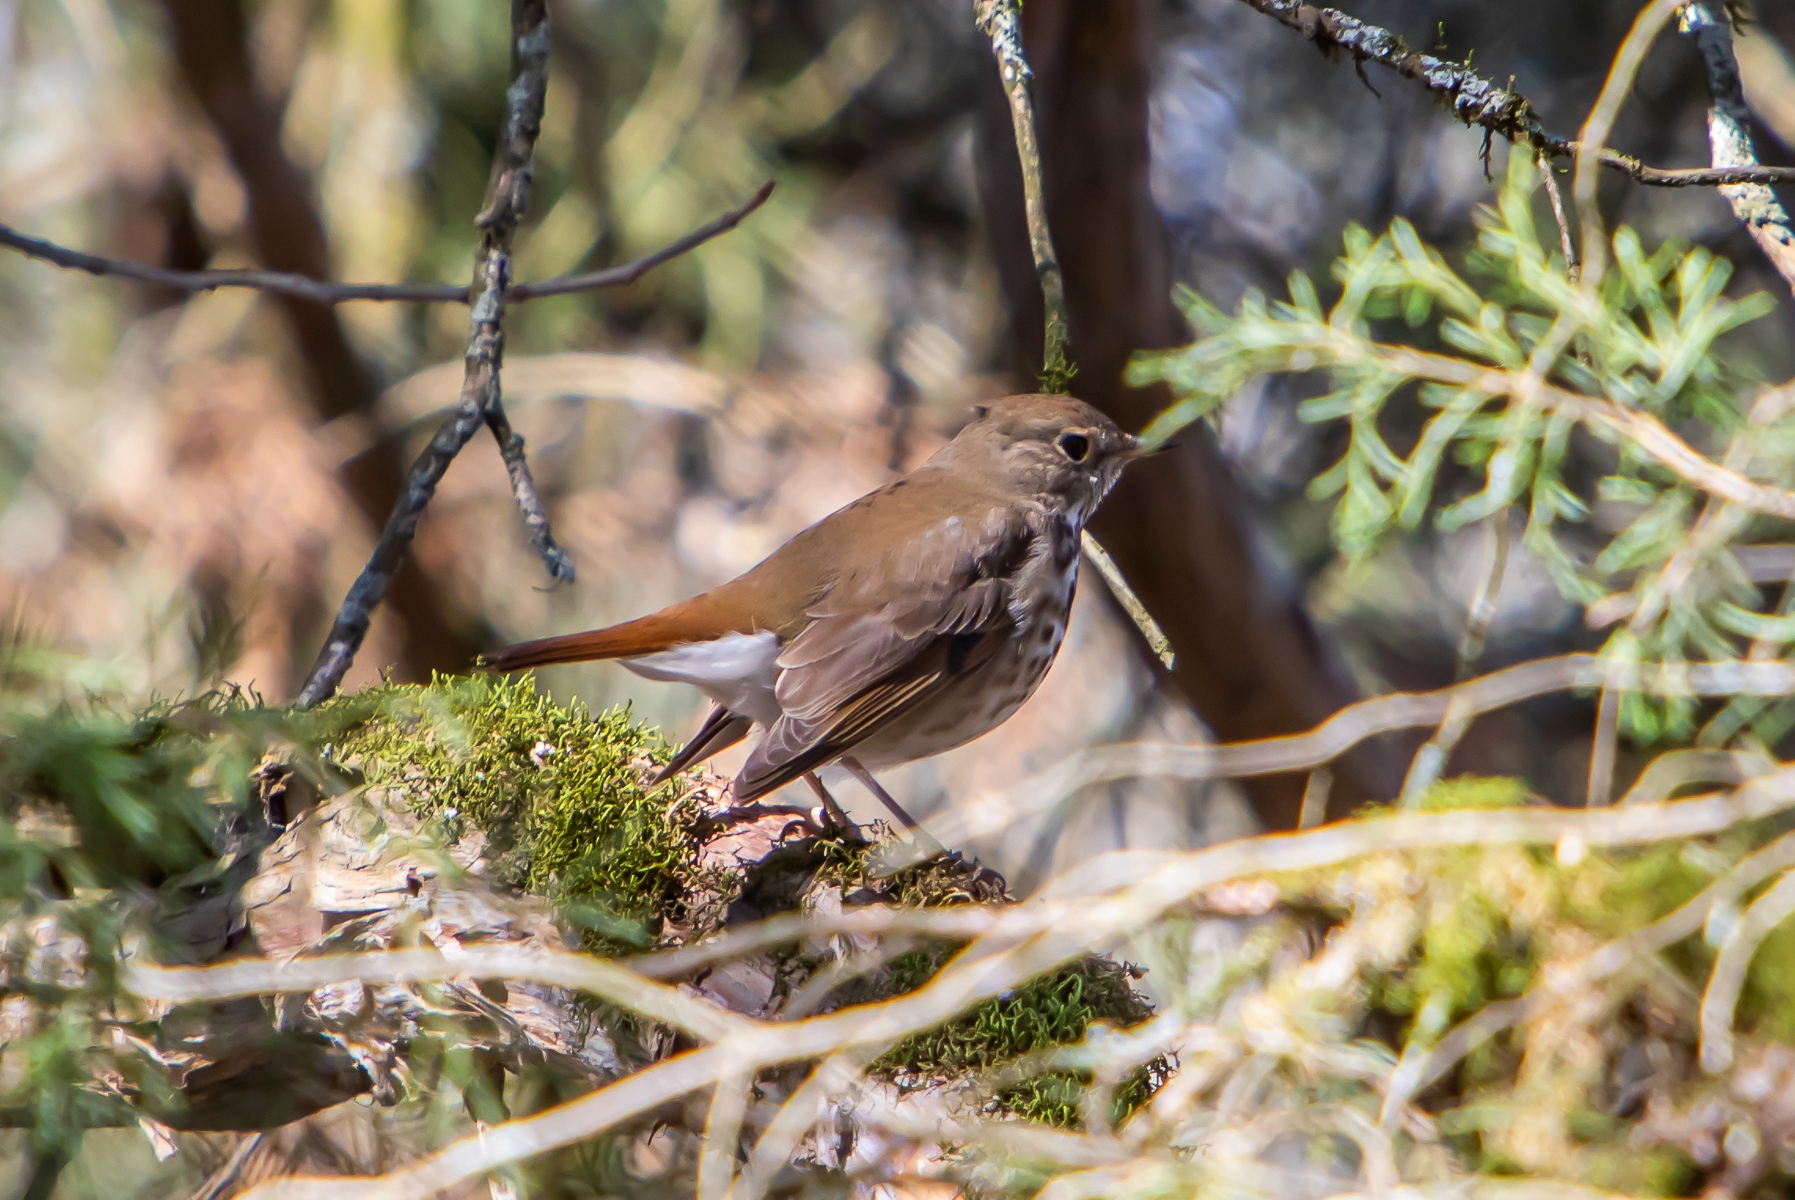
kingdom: Animalia
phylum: Chordata
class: Aves
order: Passeriformes
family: Turdidae
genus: Catharus
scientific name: Catharus guttatus
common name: Hermit thrush
